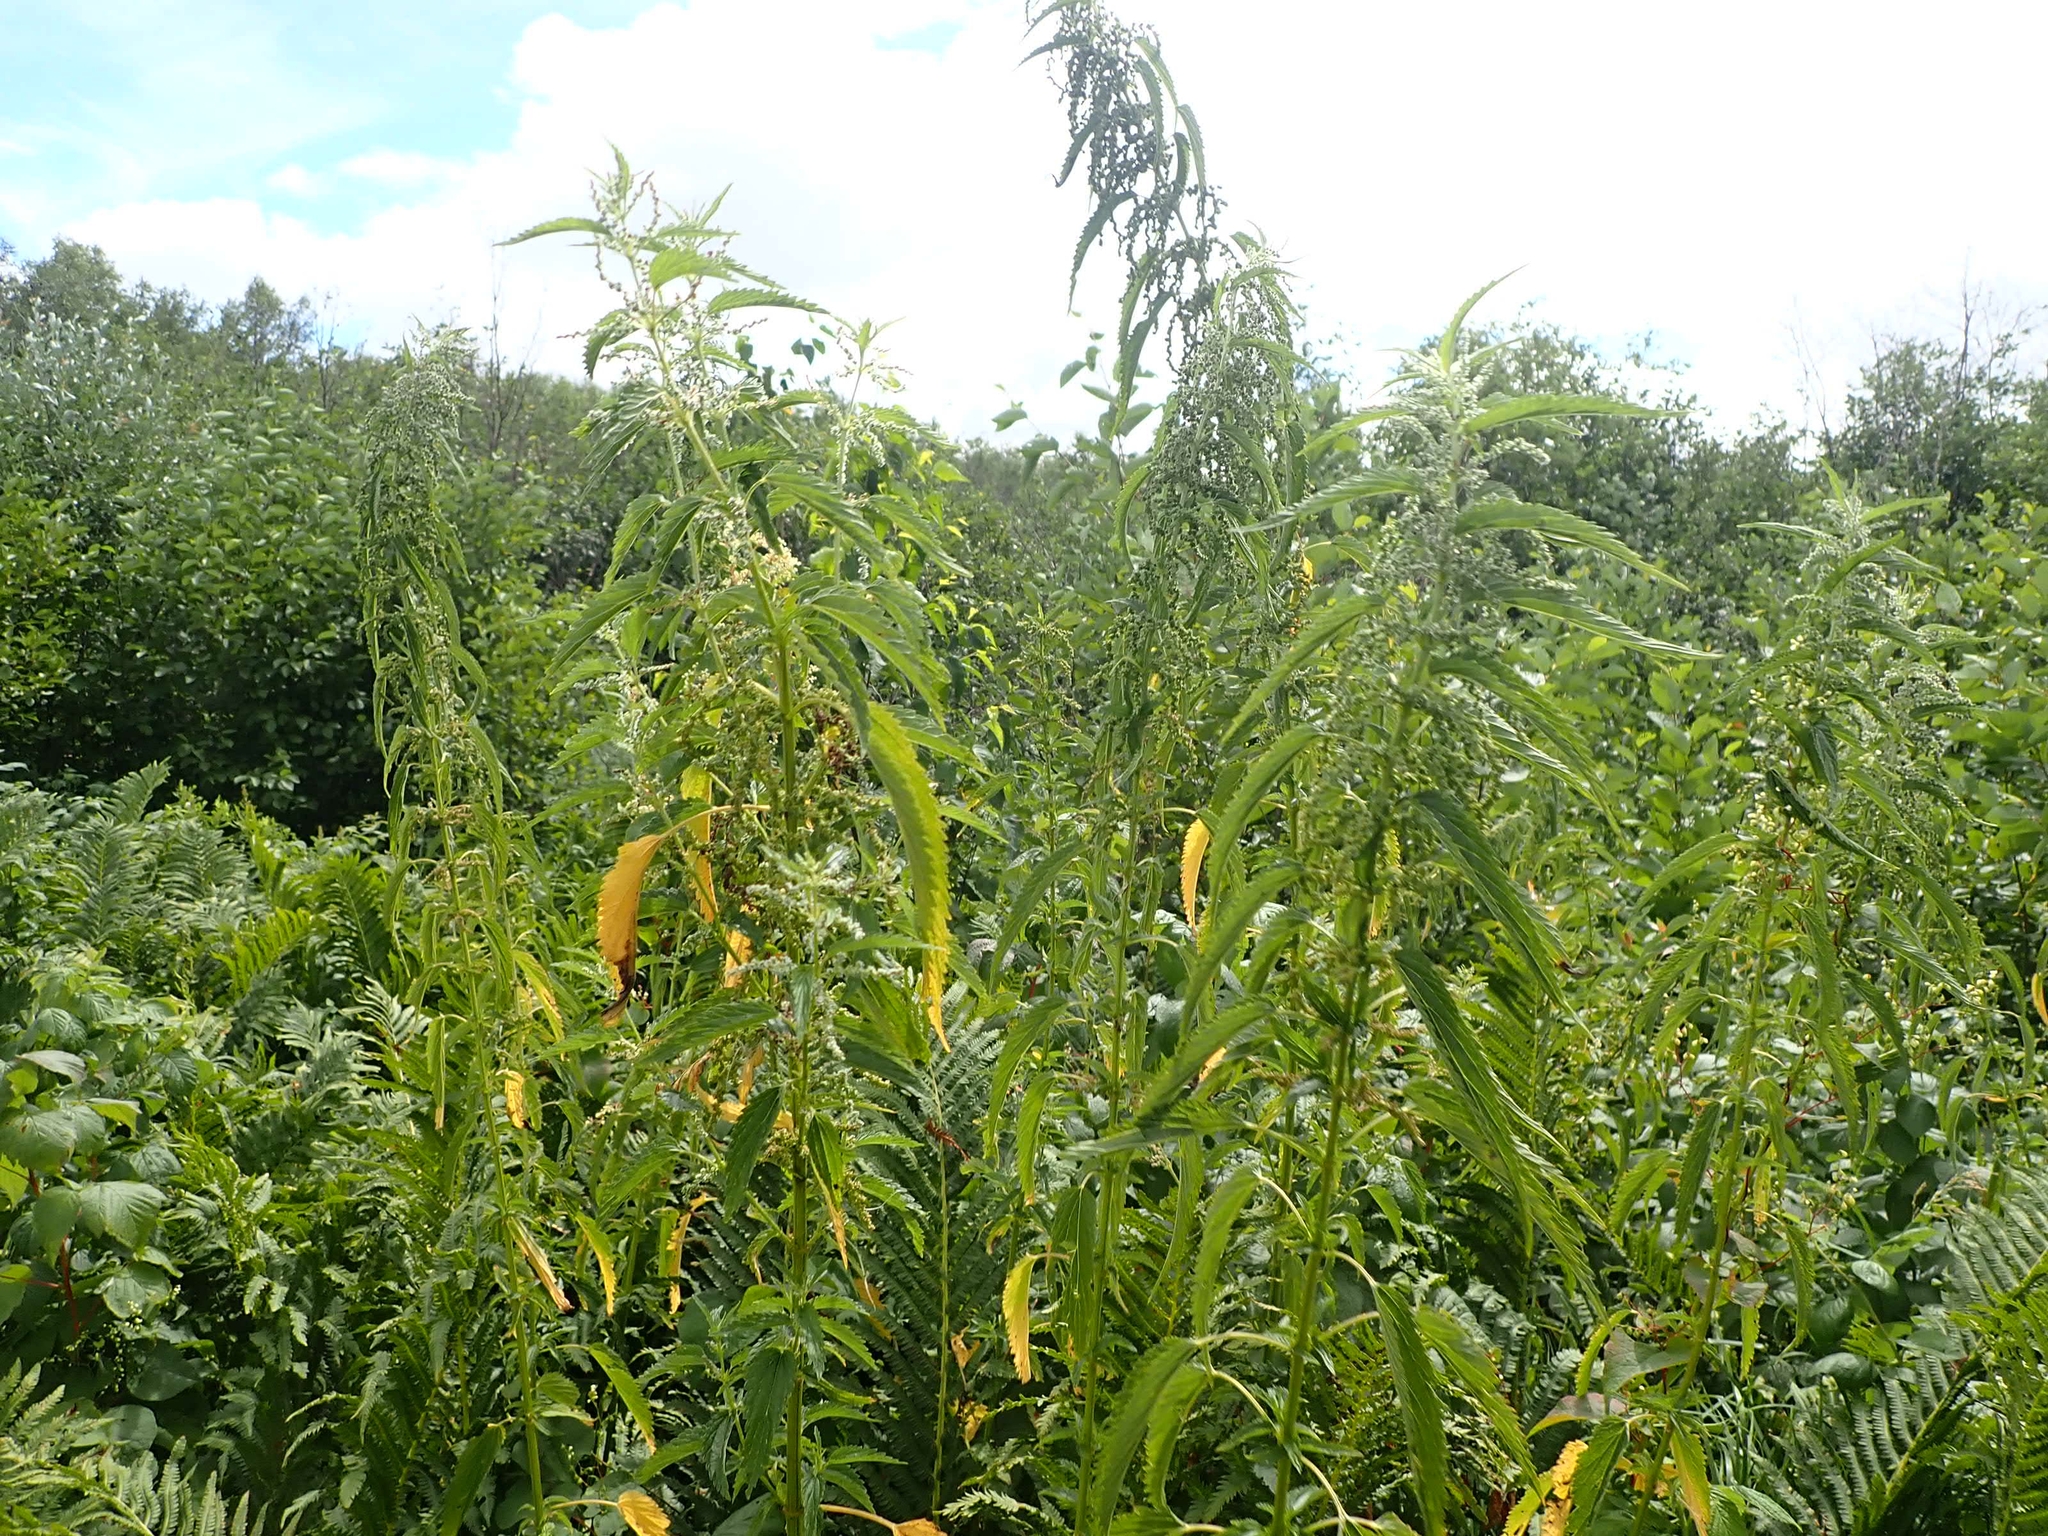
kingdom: Plantae
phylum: Tracheophyta
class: Magnoliopsida
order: Rosales
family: Urticaceae
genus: Urtica
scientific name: Urtica gracilis
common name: Slender stinging nettle
